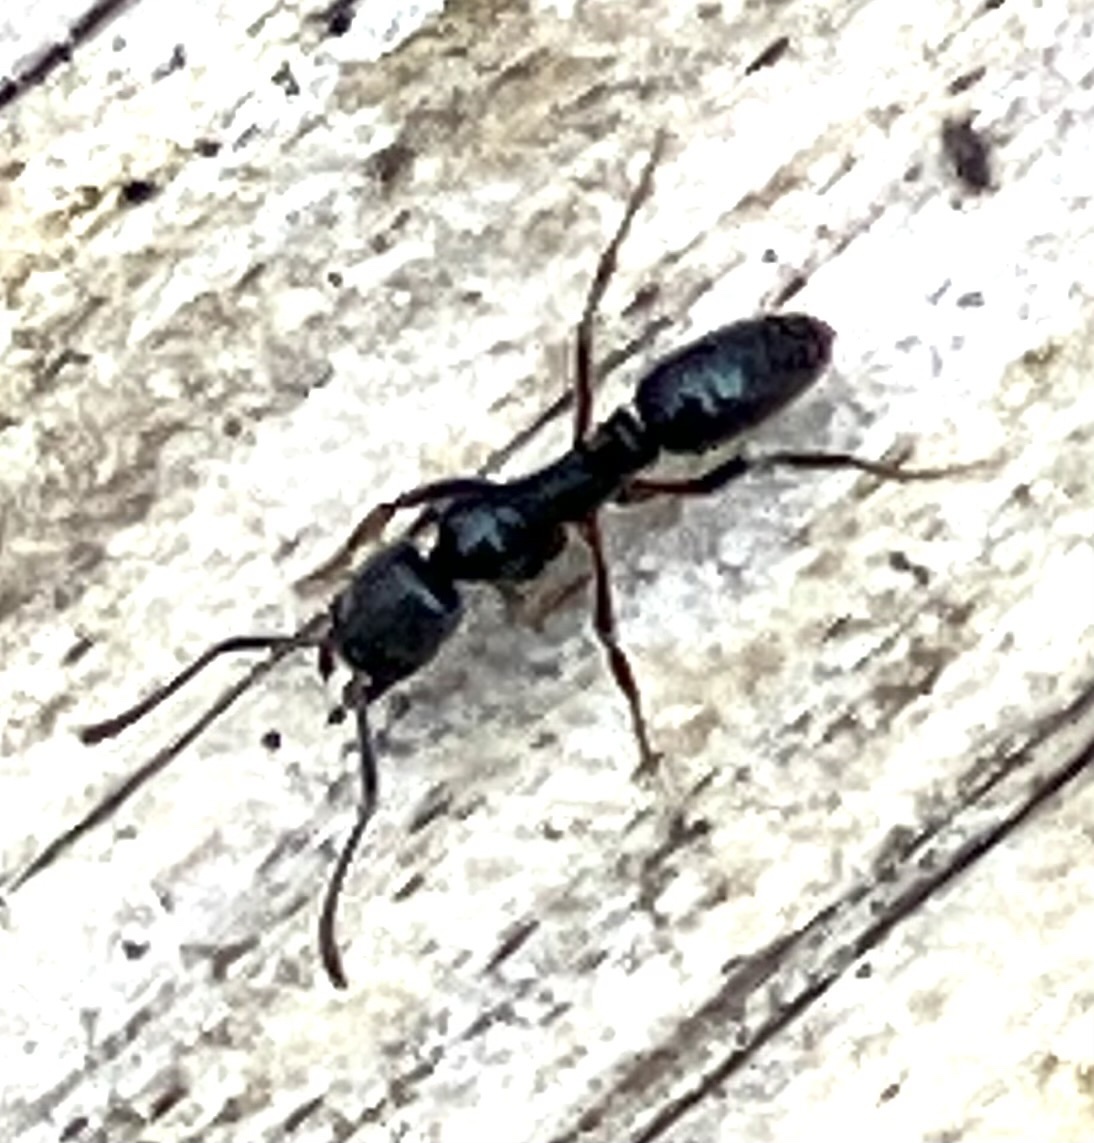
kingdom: Animalia
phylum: Arthropoda
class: Insecta
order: Hymenoptera
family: Formicidae
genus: Pachycondyla
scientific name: Pachycondyla chinensis
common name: Asian needle ant
